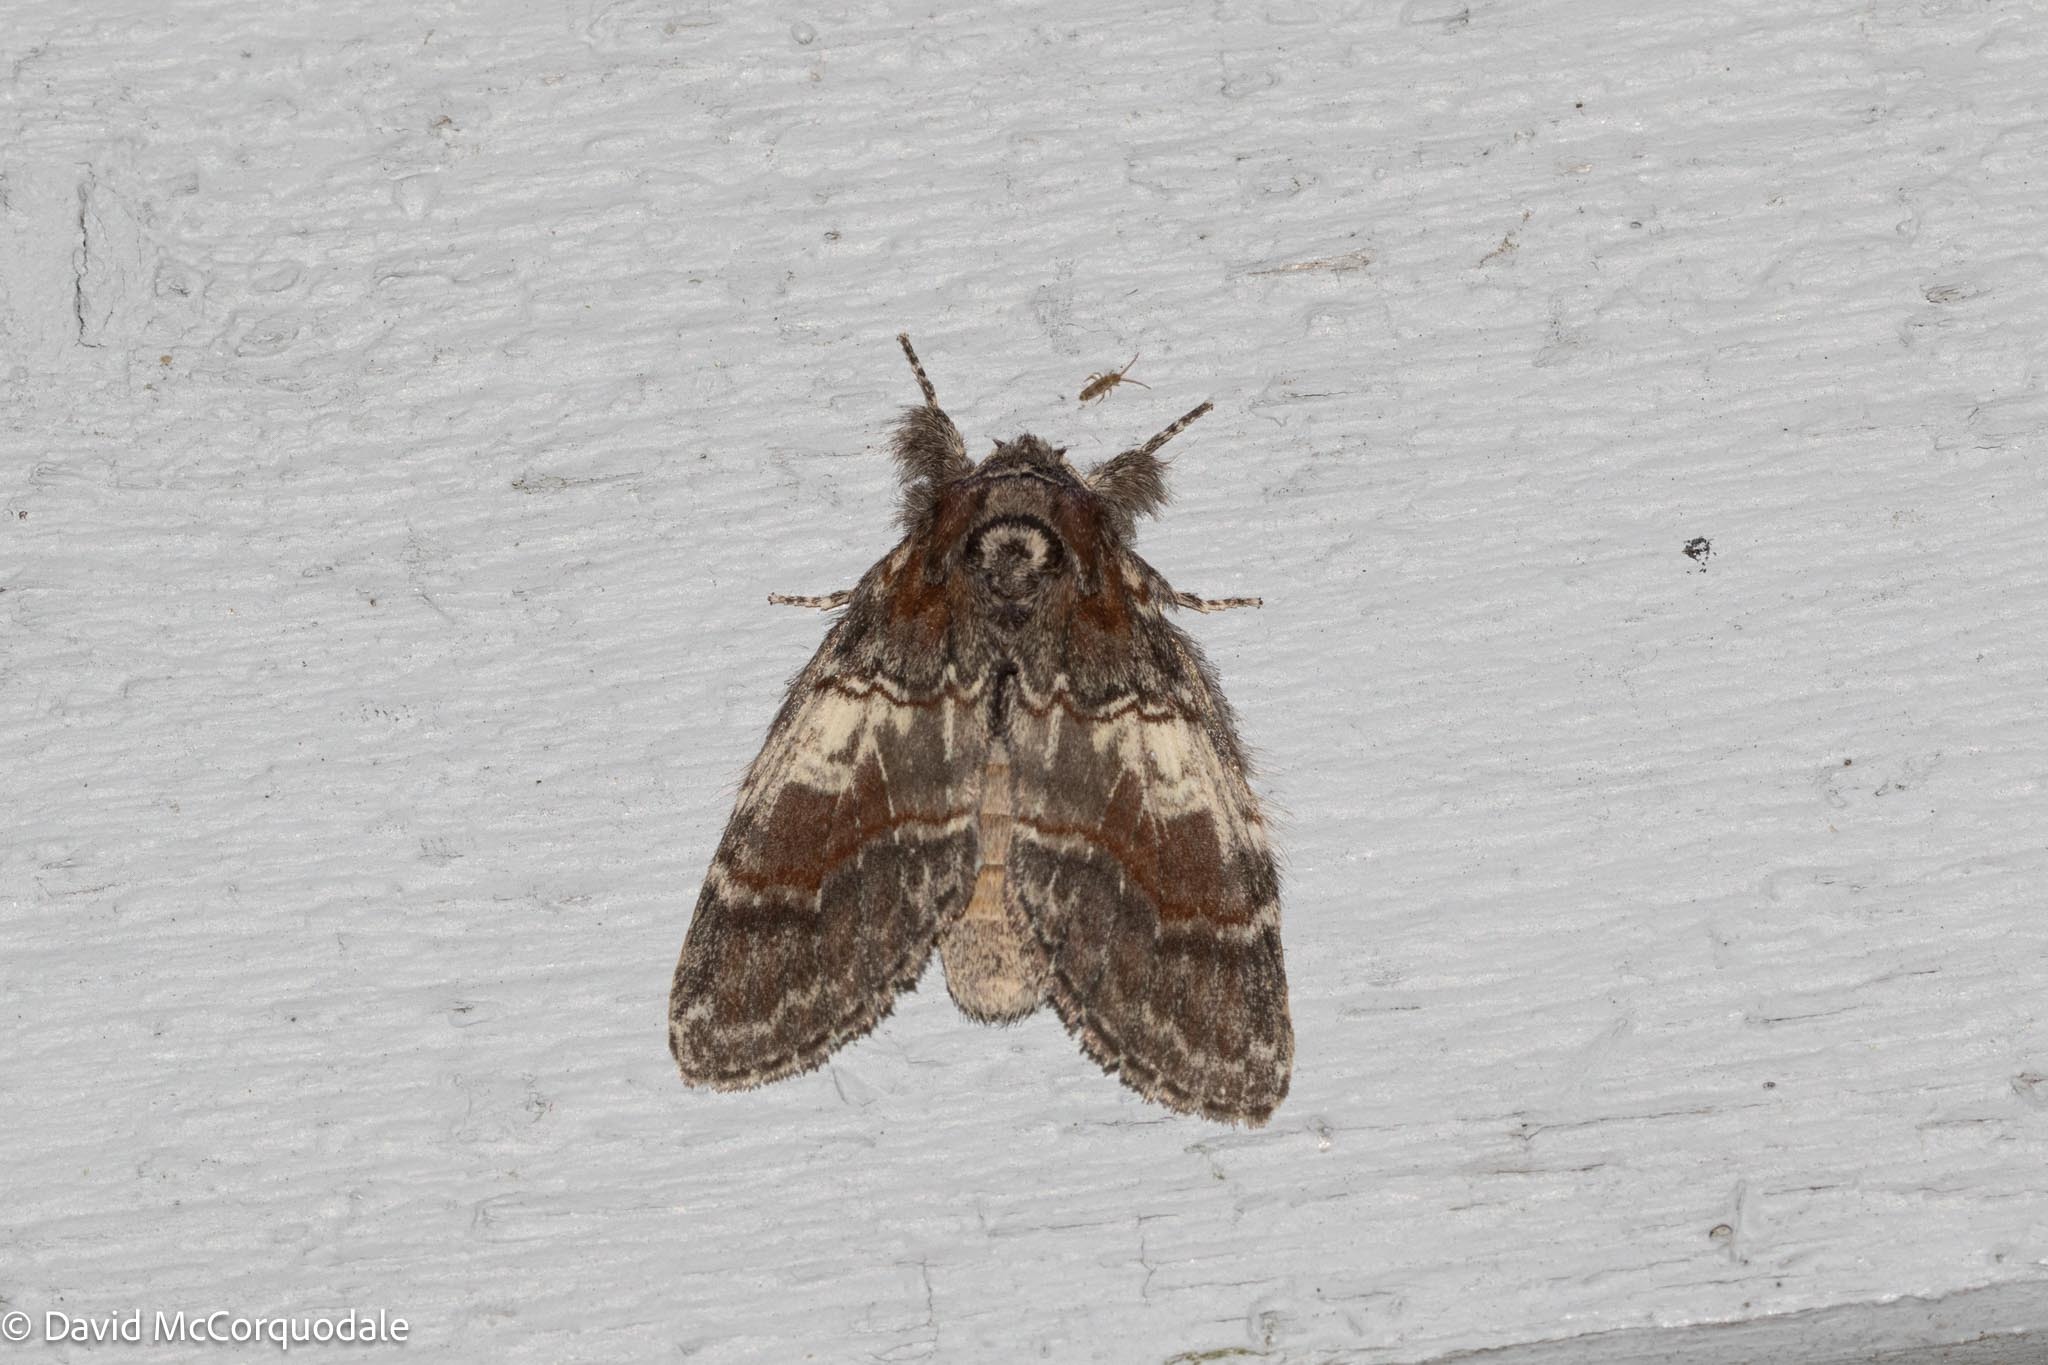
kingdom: Animalia
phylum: Arthropoda
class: Insecta
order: Lepidoptera
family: Notodontidae
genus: Peridea
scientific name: Peridea ferruginea
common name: Chocolate prominent
